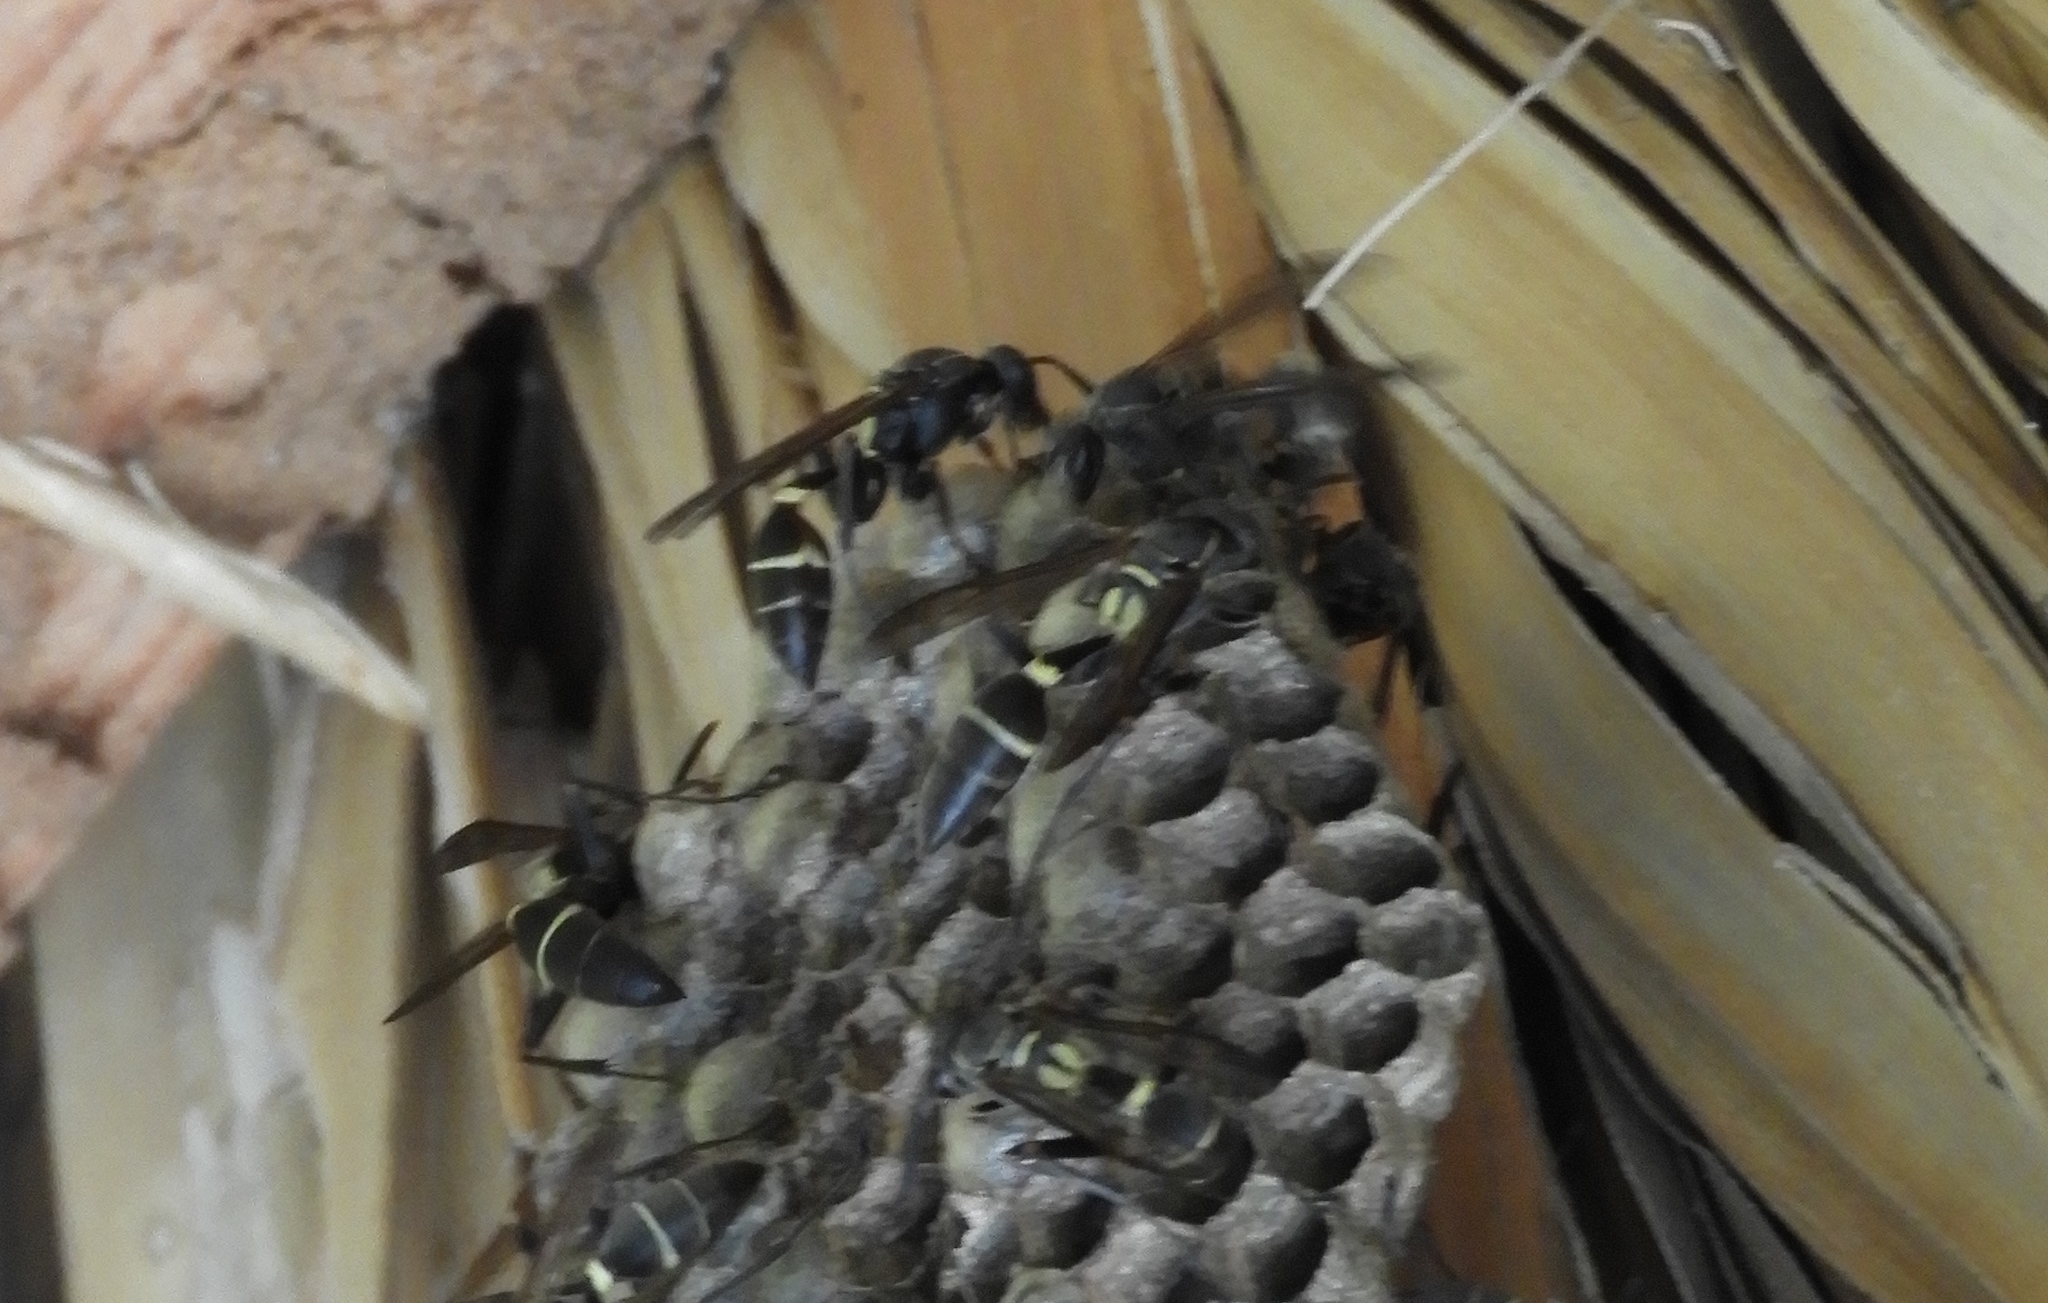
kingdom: Animalia
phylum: Arthropoda
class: Insecta
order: Hymenoptera
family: Vespidae
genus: Mischocyttarus
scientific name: Mischocyttarus rufidens
